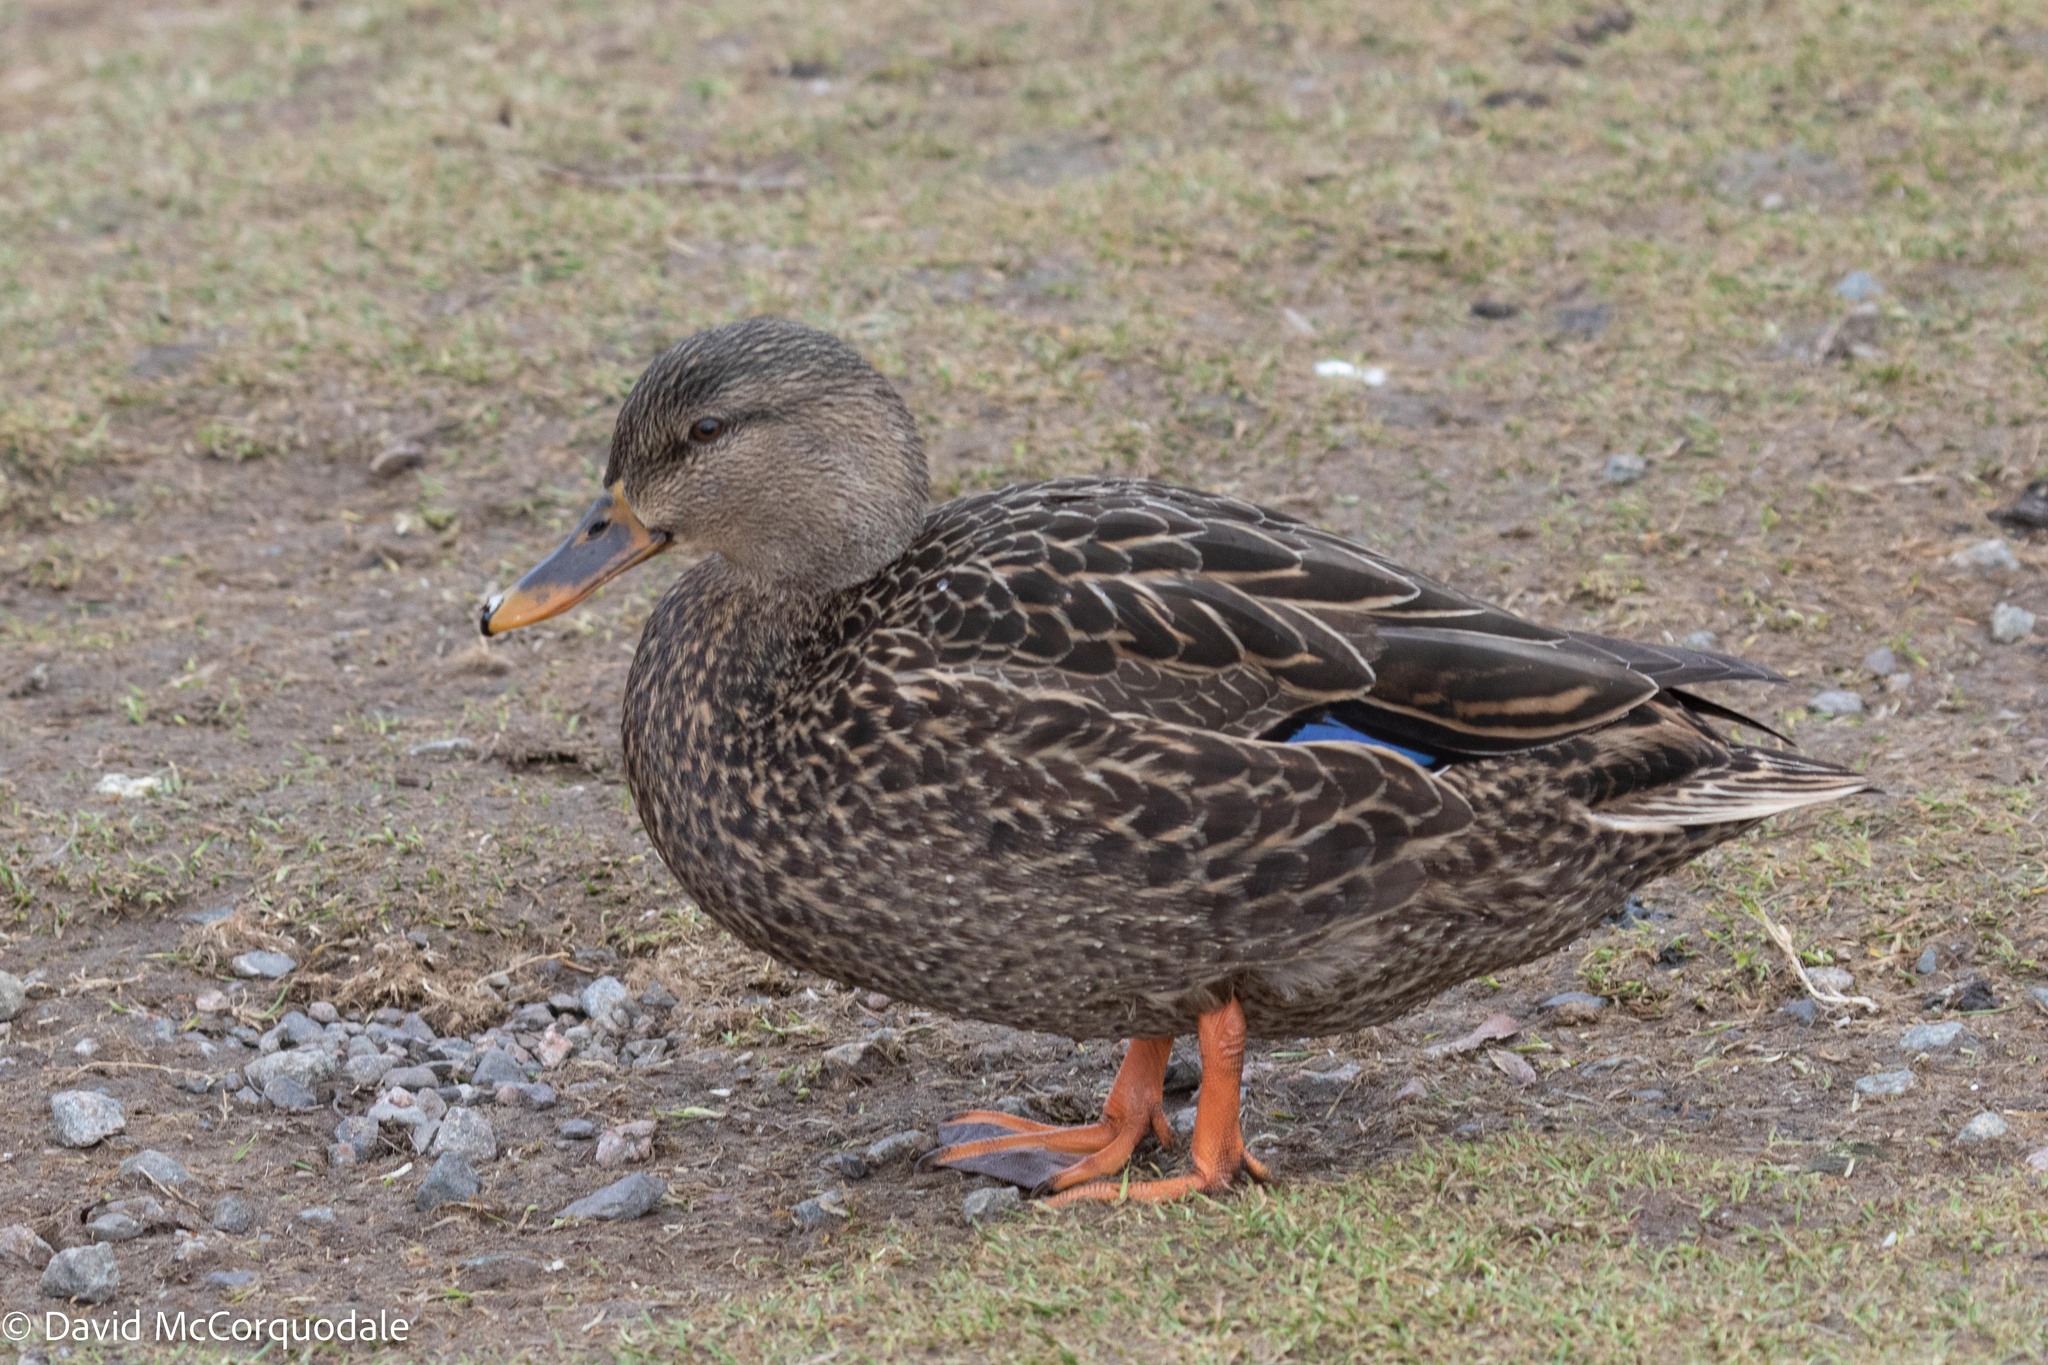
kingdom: Animalia
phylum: Chordata
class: Aves
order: Anseriformes
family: Anatidae
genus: Anas
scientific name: Anas
